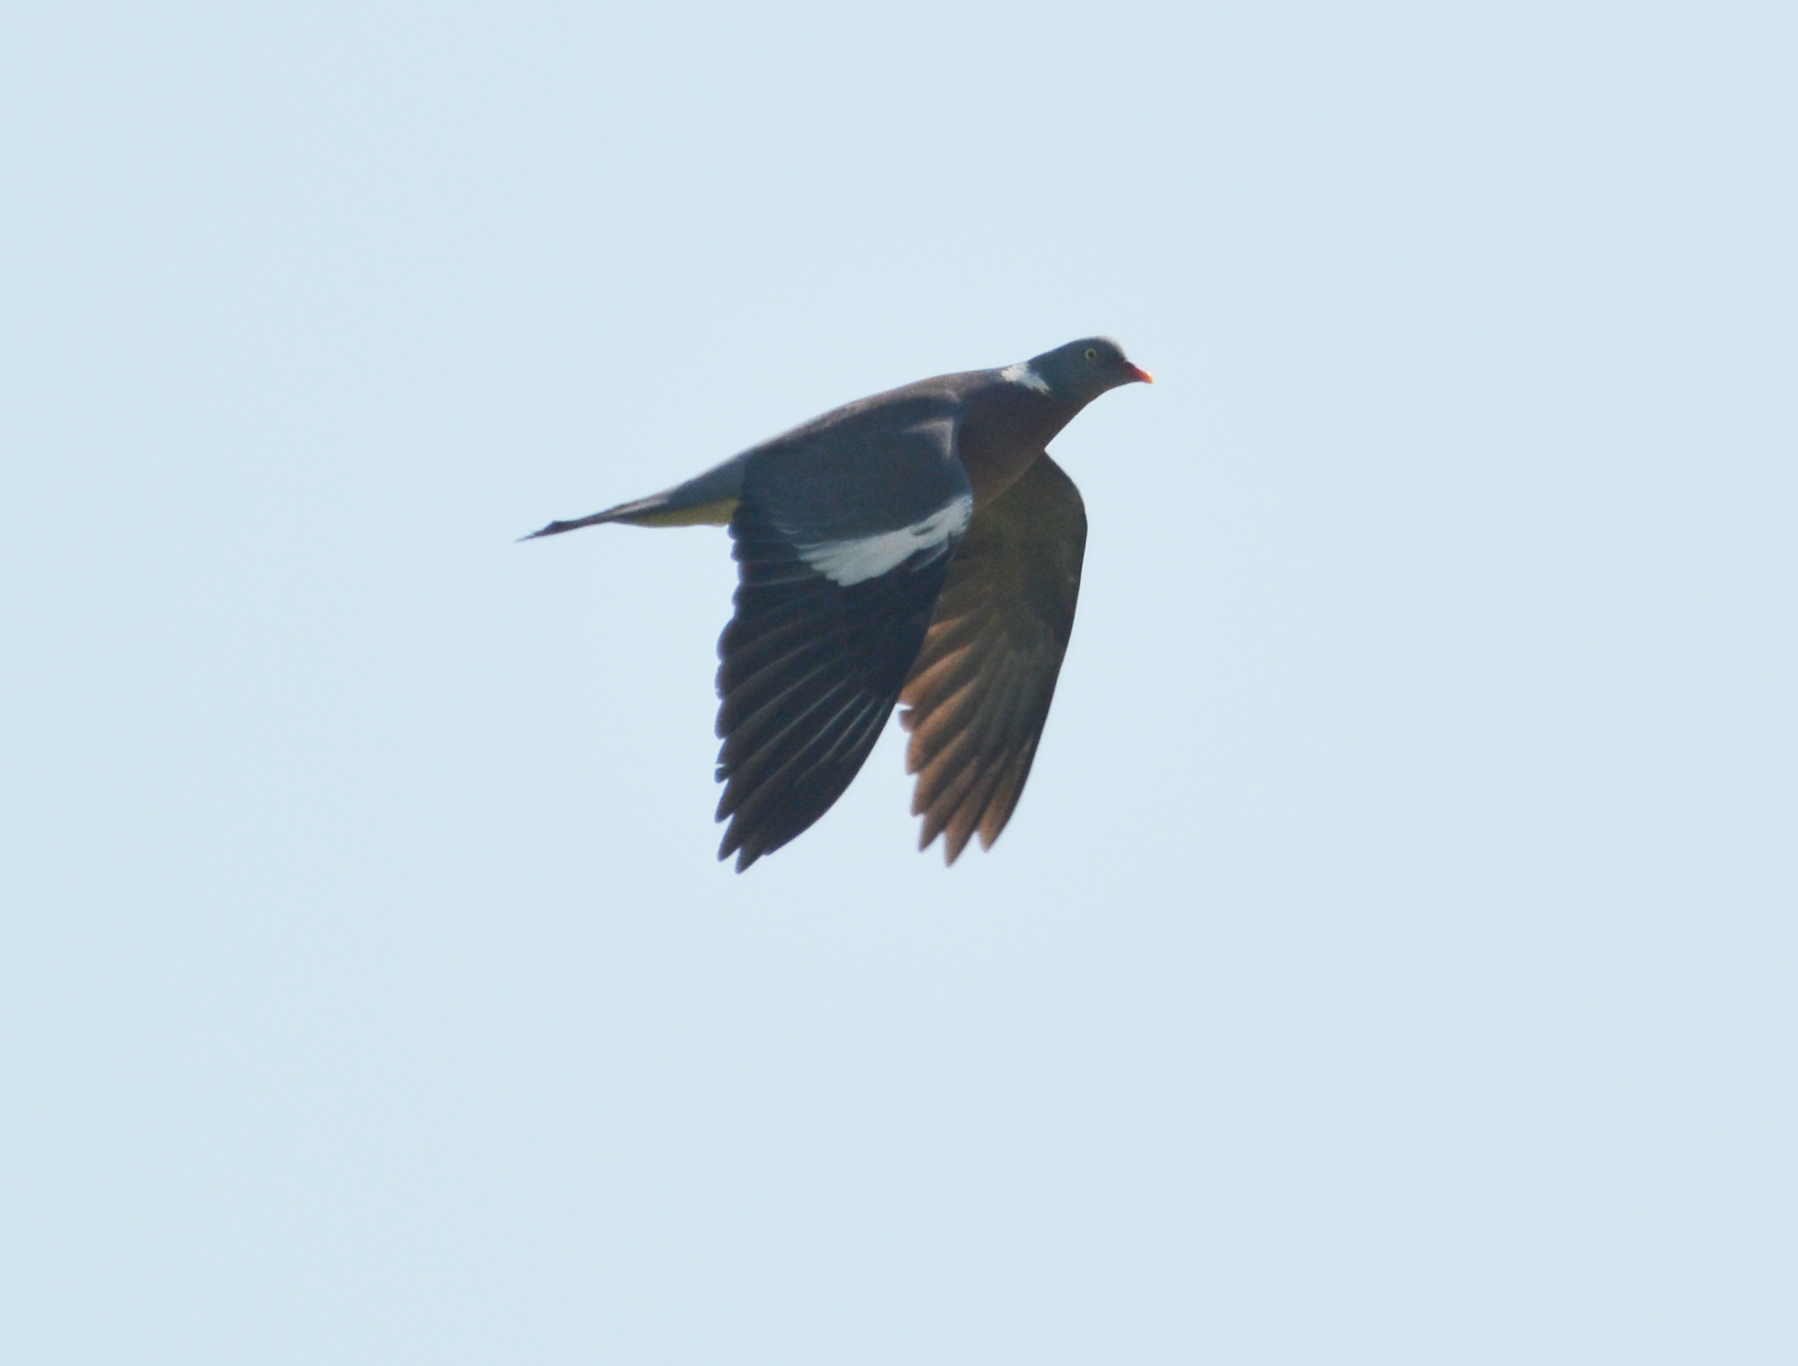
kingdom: Animalia
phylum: Chordata
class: Aves
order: Columbiformes
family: Columbidae
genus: Columba
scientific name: Columba palumbus
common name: Common wood pigeon
